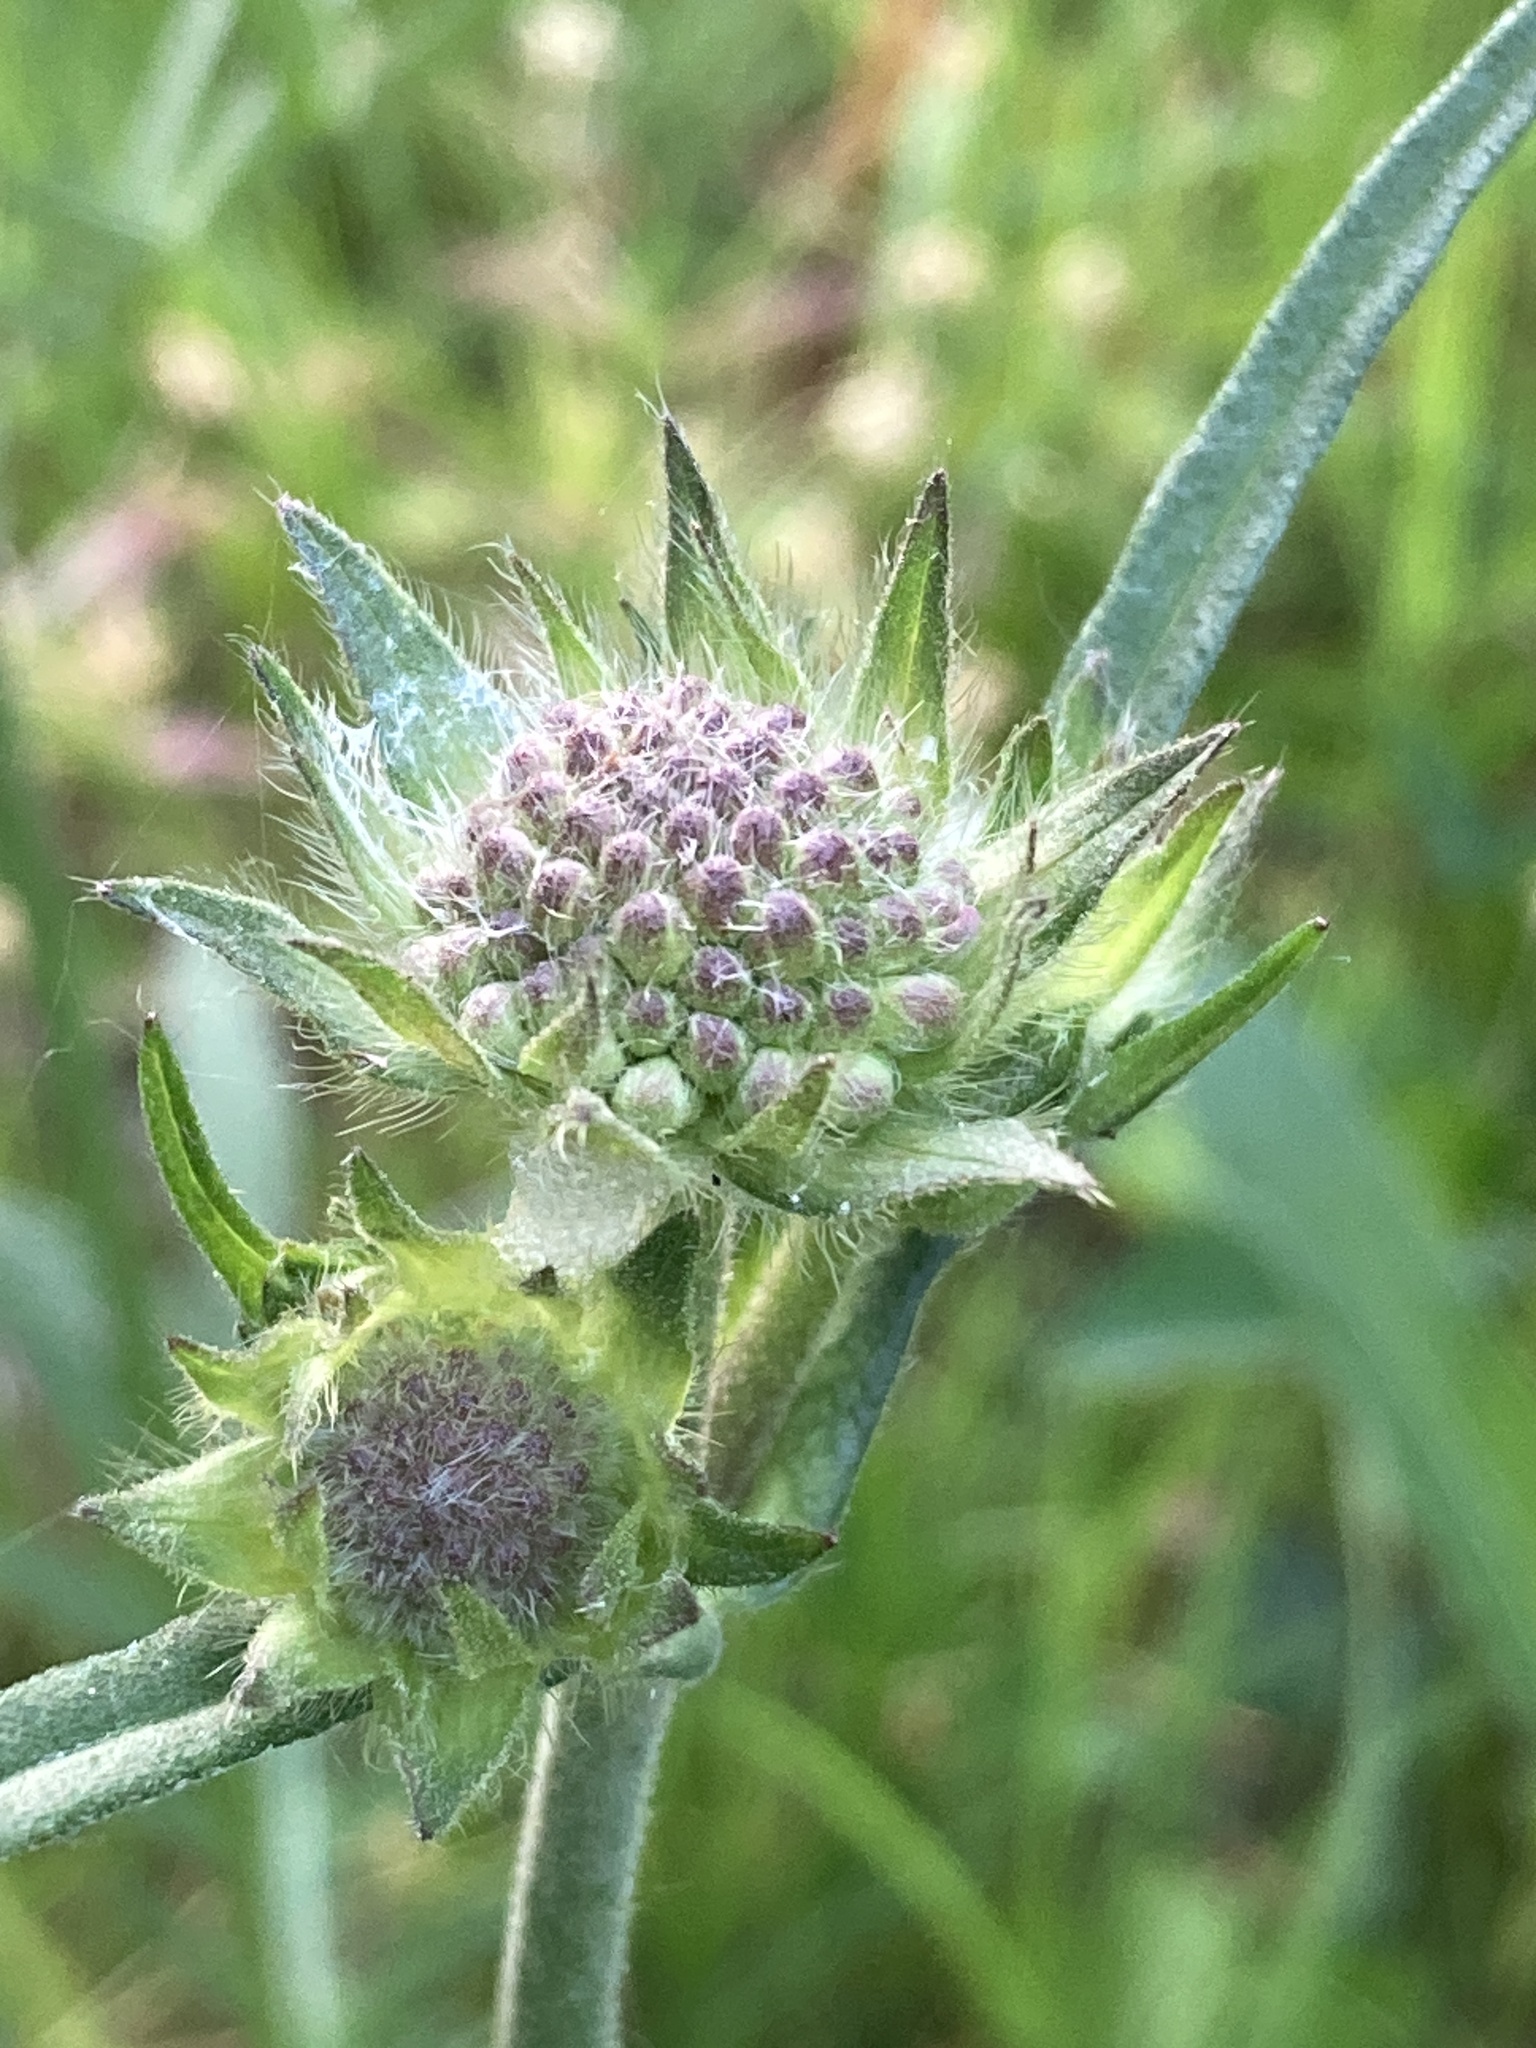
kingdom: Plantae
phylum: Tracheophyta
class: Magnoliopsida
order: Dipsacales
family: Caprifoliaceae
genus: Knautia
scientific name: Knautia arvensis
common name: Field scabiosa
